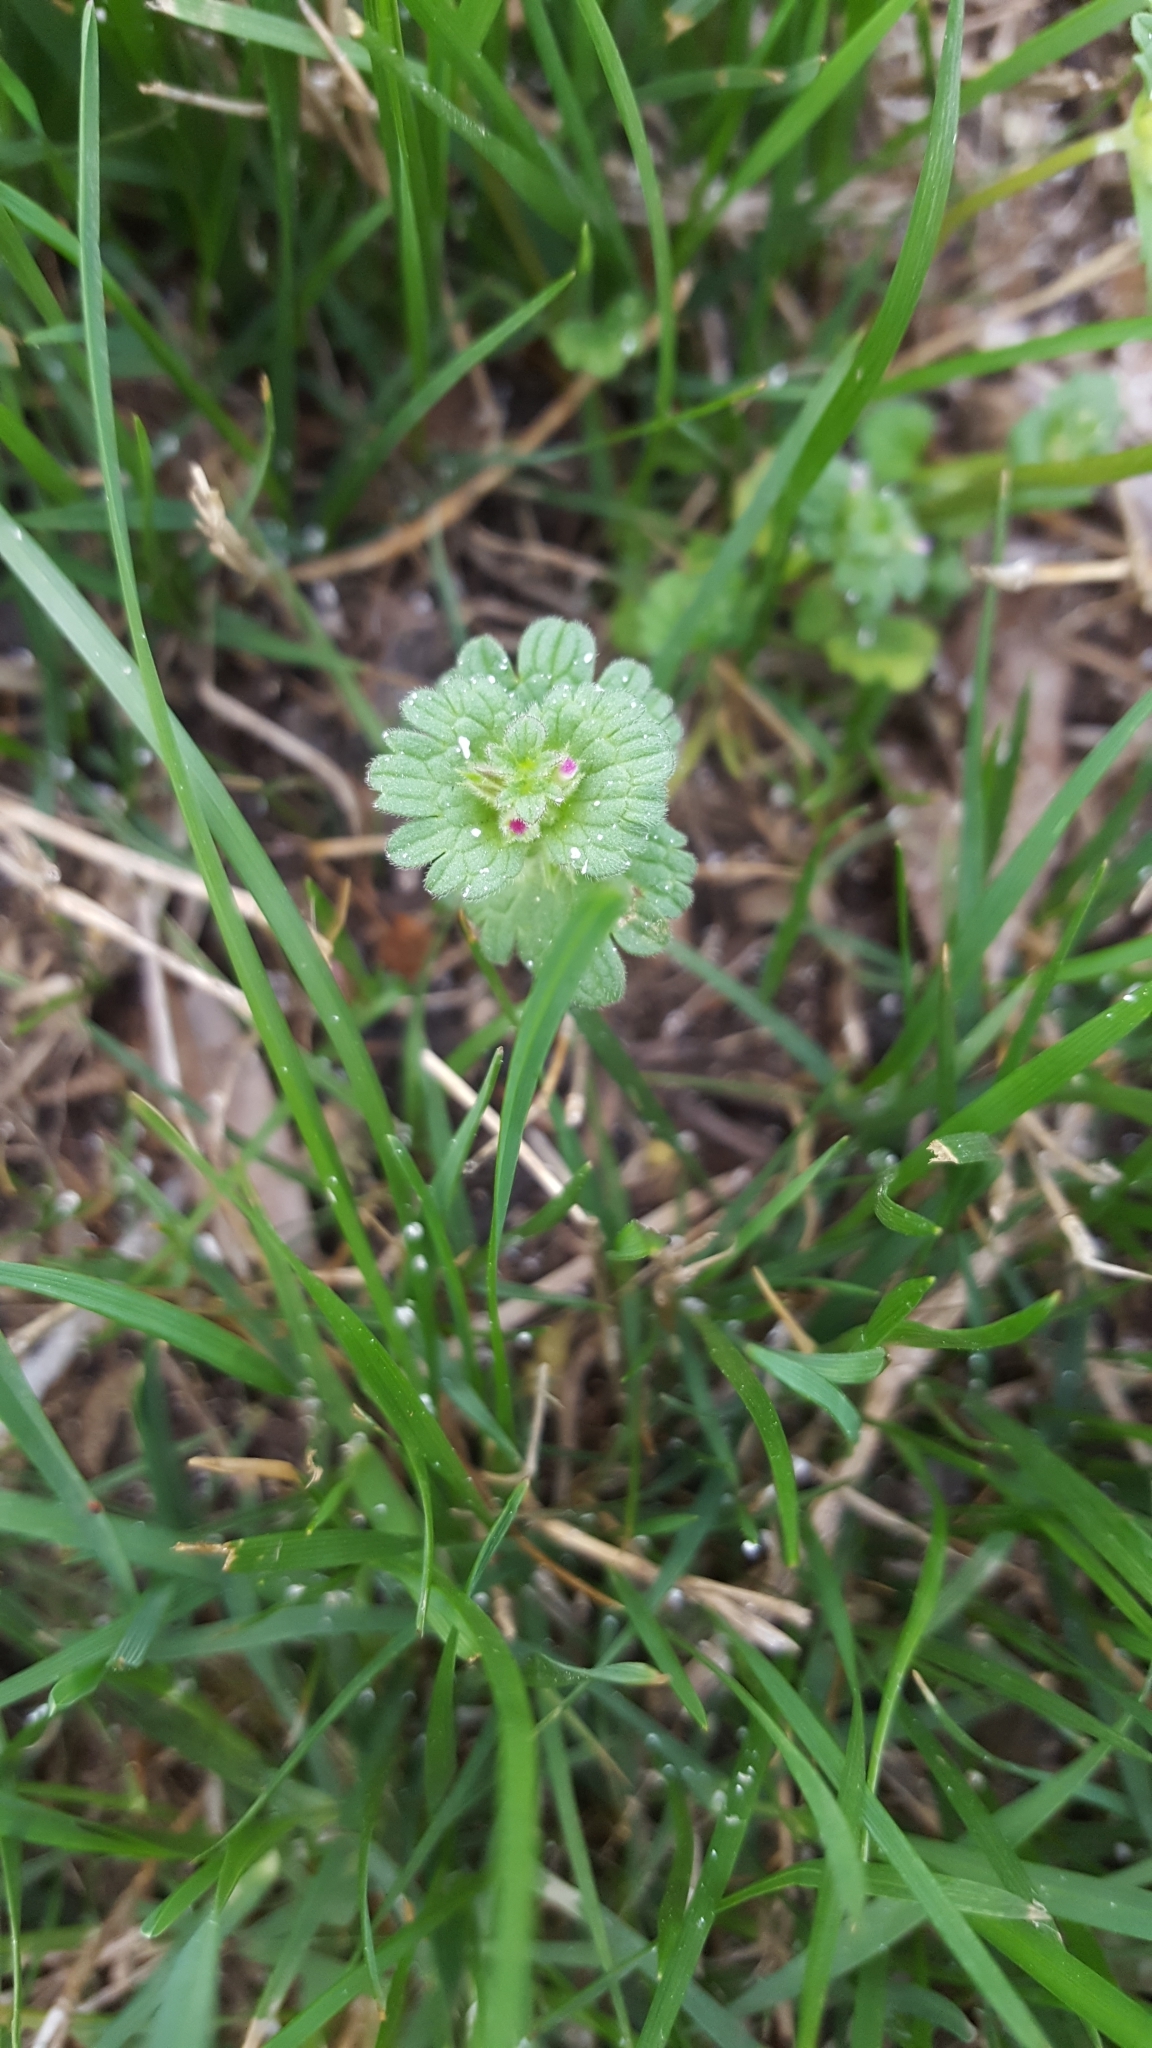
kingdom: Plantae
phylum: Tracheophyta
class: Magnoliopsida
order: Lamiales
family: Lamiaceae
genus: Lamium
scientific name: Lamium amplexicaule
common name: Henbit dead-nettle
